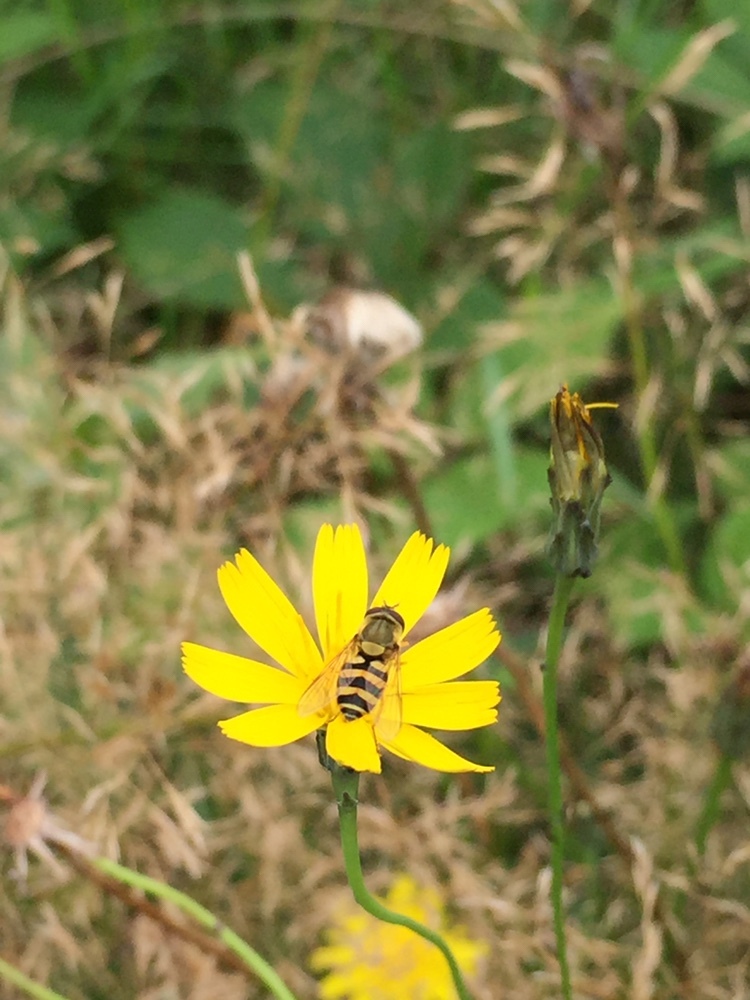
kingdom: Animalia
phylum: Arthropoda
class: Insecta
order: Diptera
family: Syrphidae
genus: Syrphus
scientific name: Syrphus
